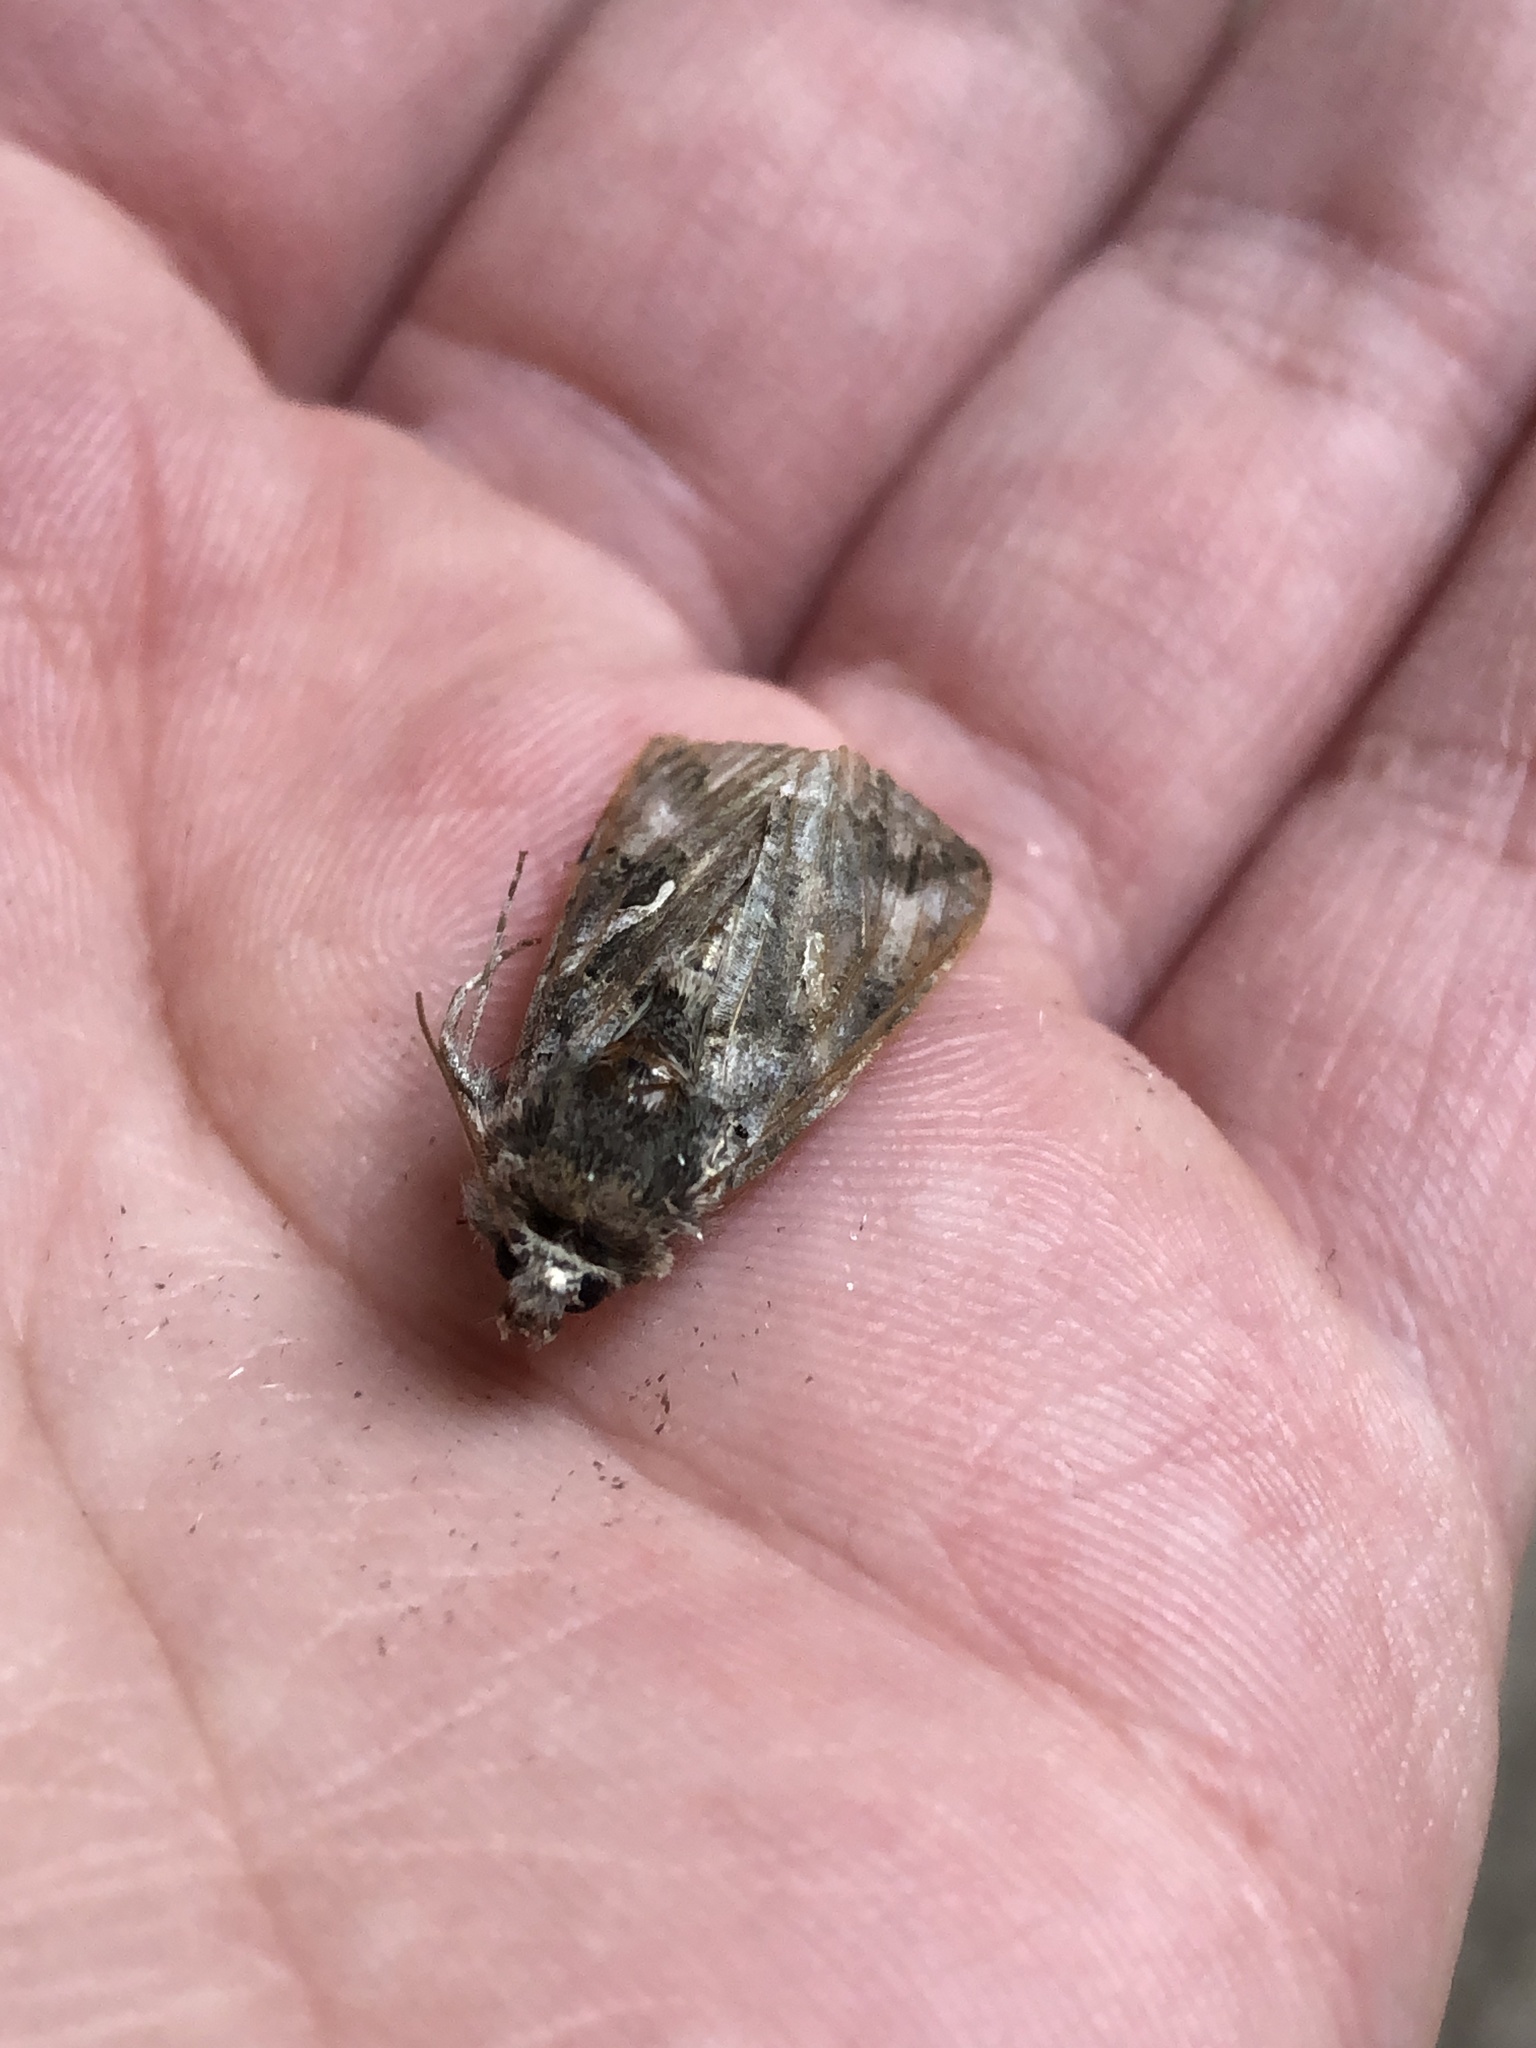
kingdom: Animalia
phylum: Arthropoda
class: Insecta
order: Lepidoptera
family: Noctuidae
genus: Autographa
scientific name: Autographa gamma
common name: Silver y
